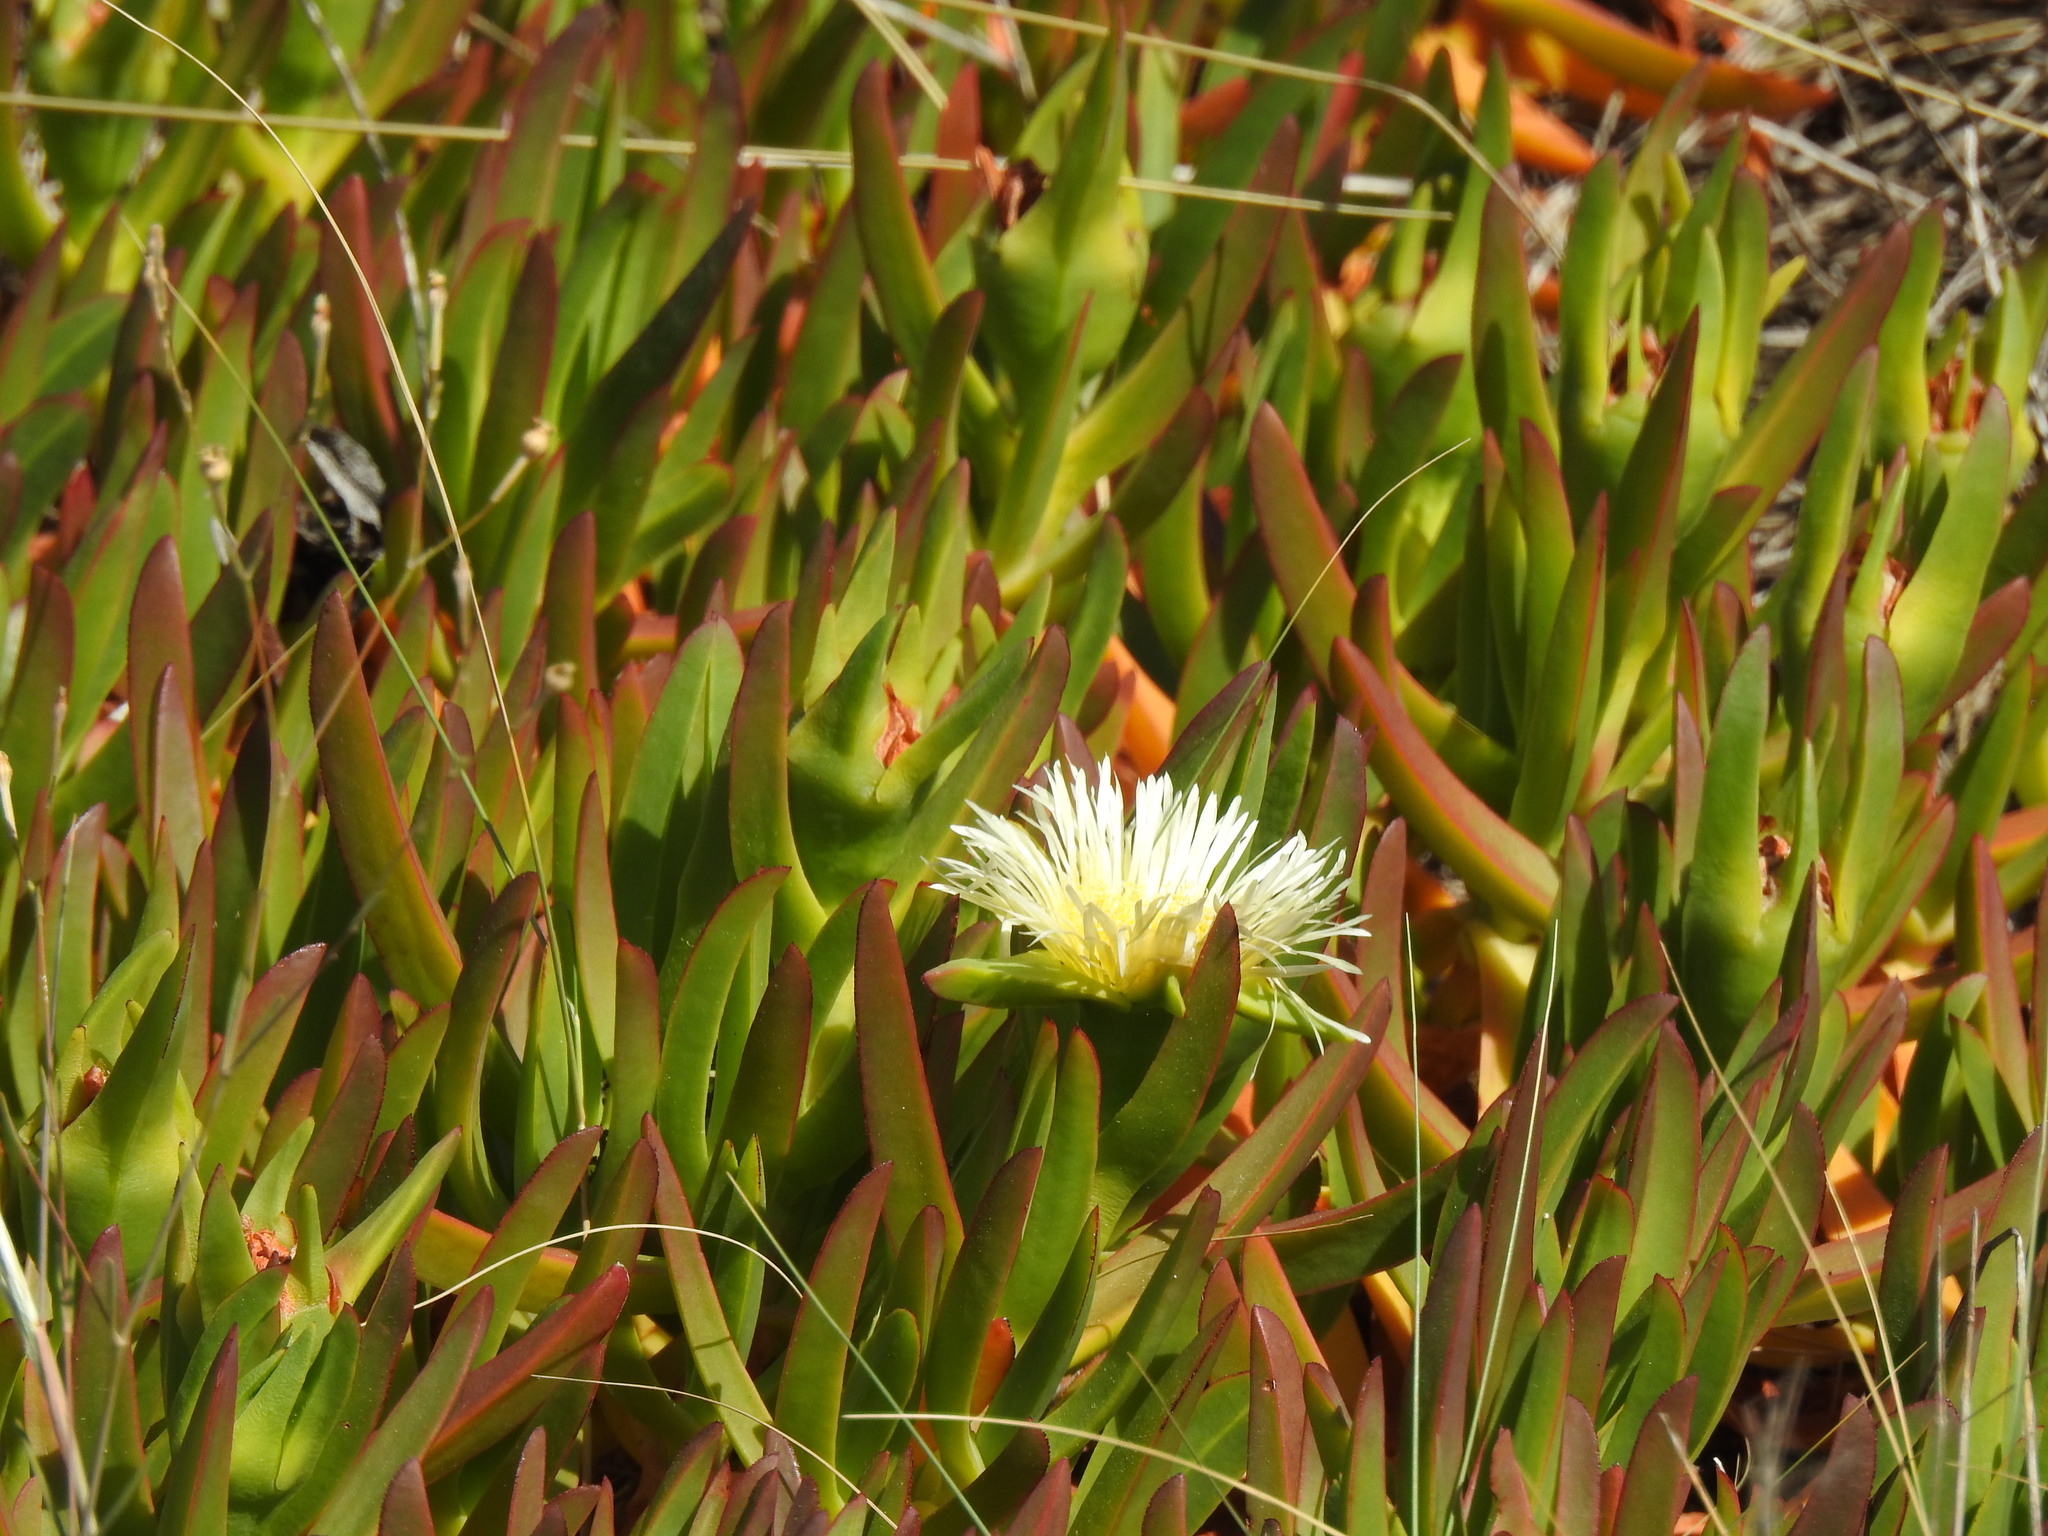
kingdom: Plantae
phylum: Tracheophyta
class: Magnoliopsida
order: Caryophyllales
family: Aizoaceae
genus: Carpobrotus
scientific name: Carpobrotus edulis
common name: Hottentot-fig
